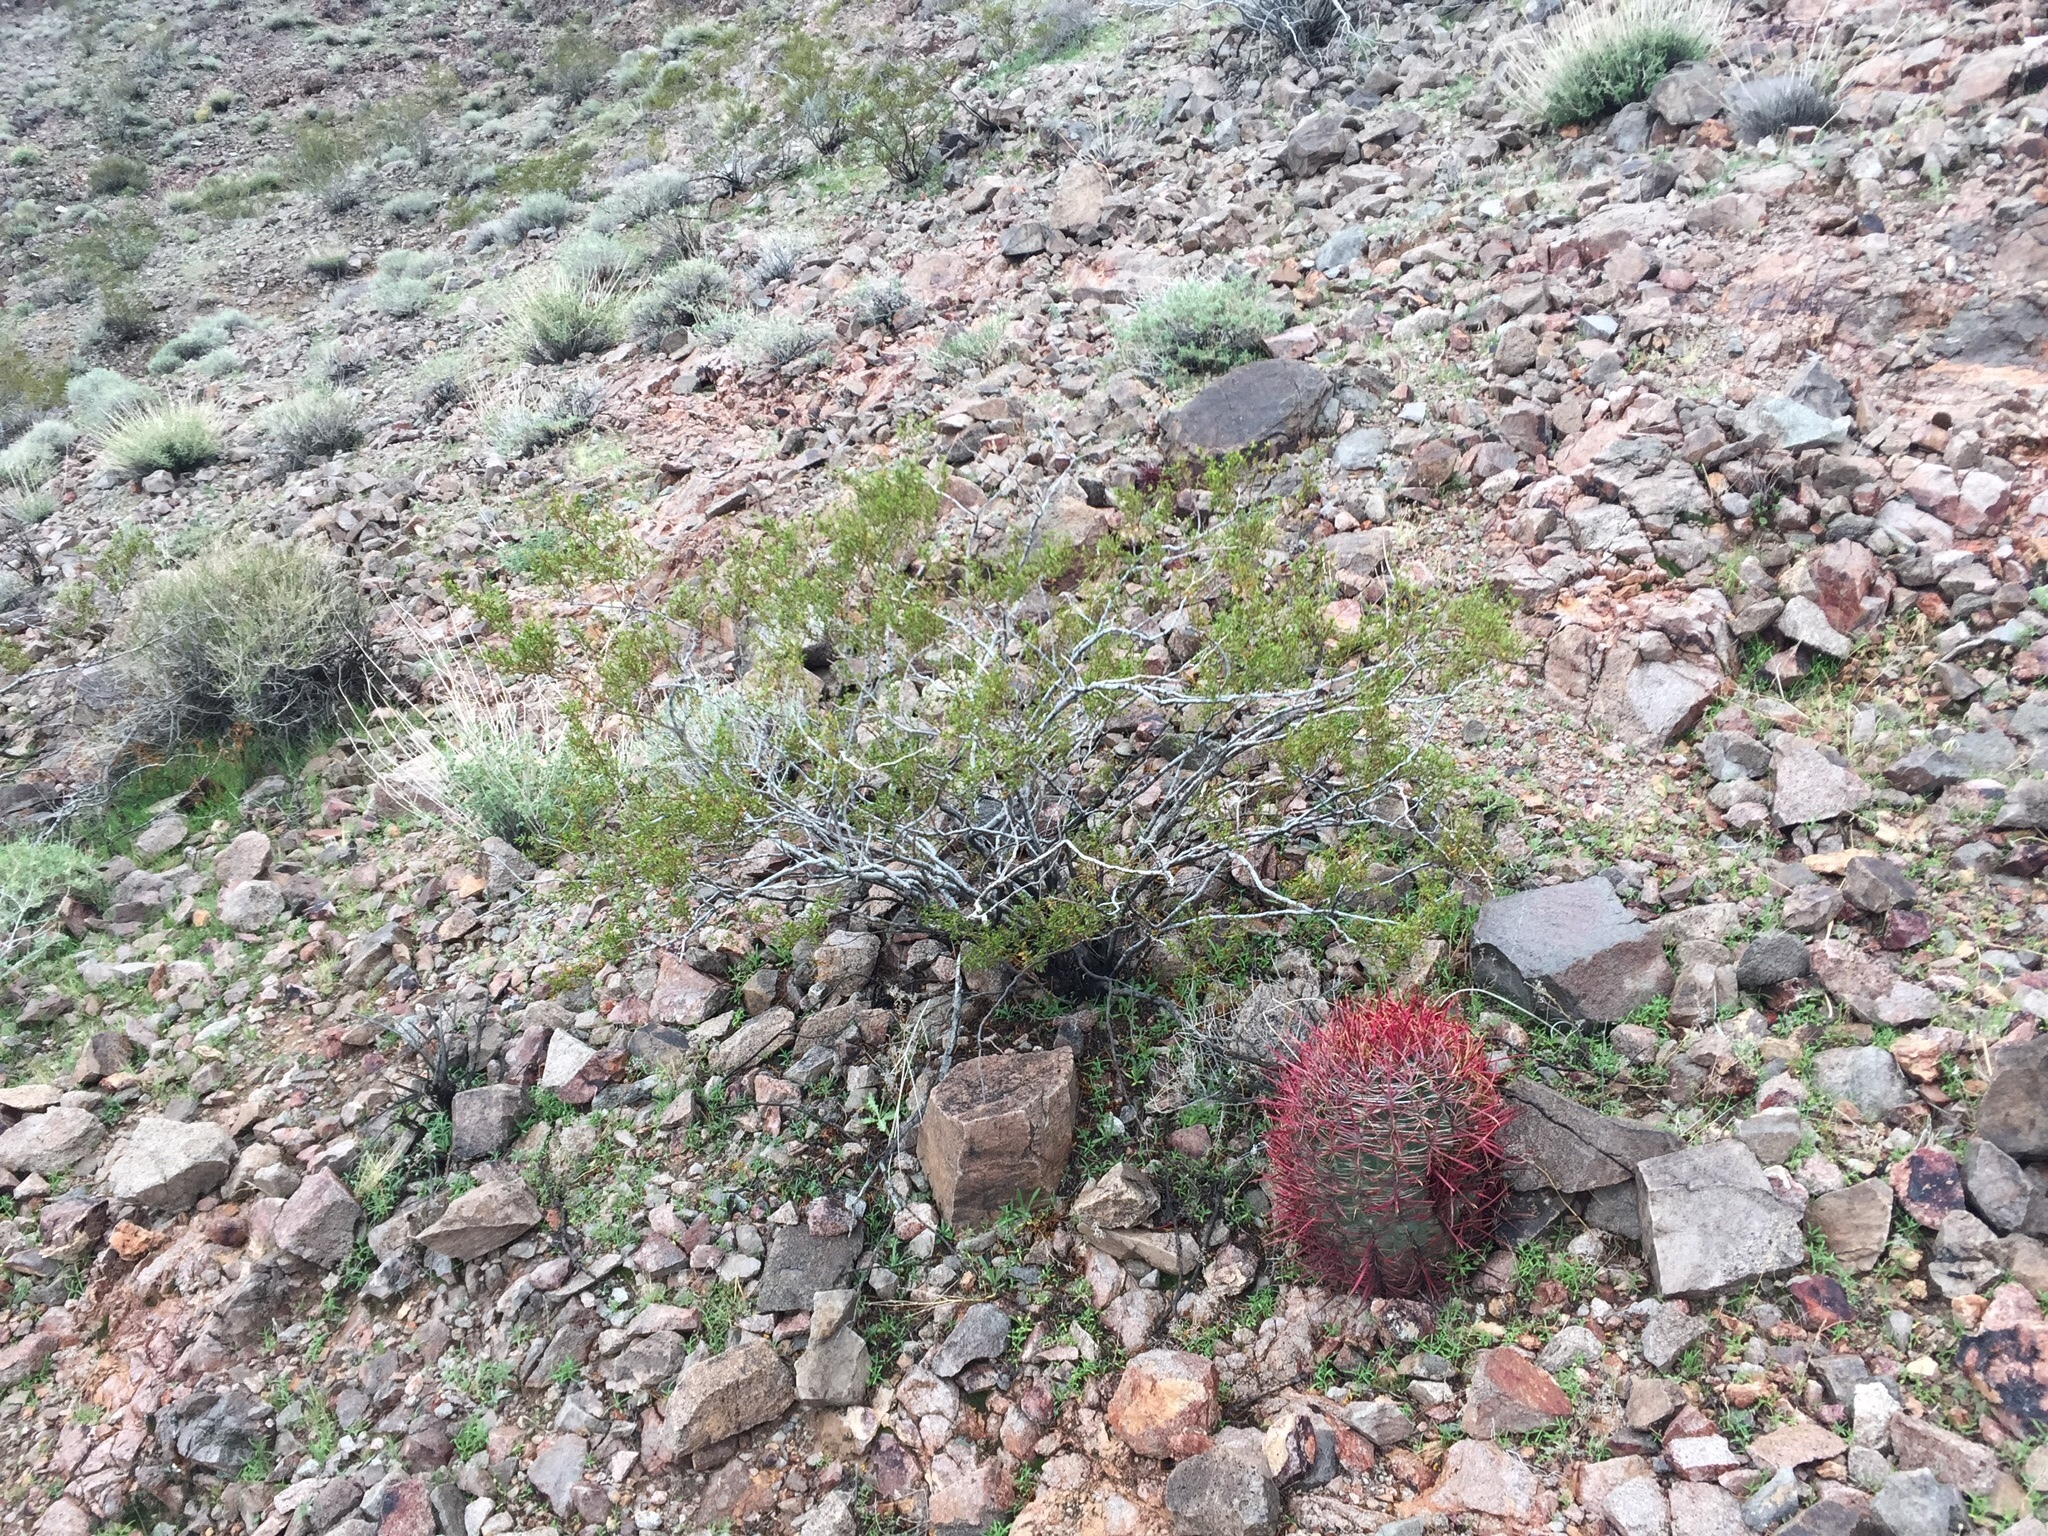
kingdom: Plantae
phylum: Tracheophyta
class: Magnoliopsida
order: Zygophyllales
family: Zygophyllaceae
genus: Larrea
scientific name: Larrea tridentata
